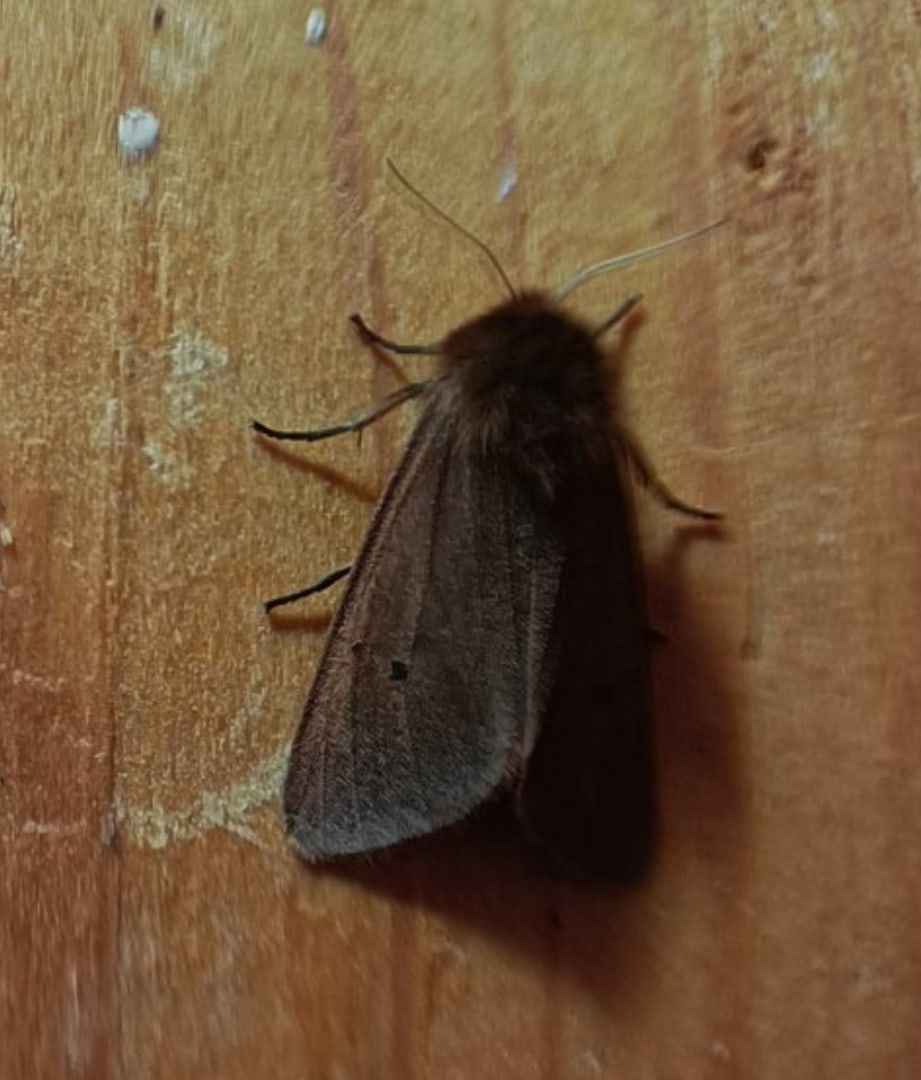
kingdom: Animalia
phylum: Arthropoda
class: Insecta
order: Lepidoptera
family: Erebidae
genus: Phragmatobia
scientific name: Phragmatobia fuliginosa
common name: Ruby tiger
